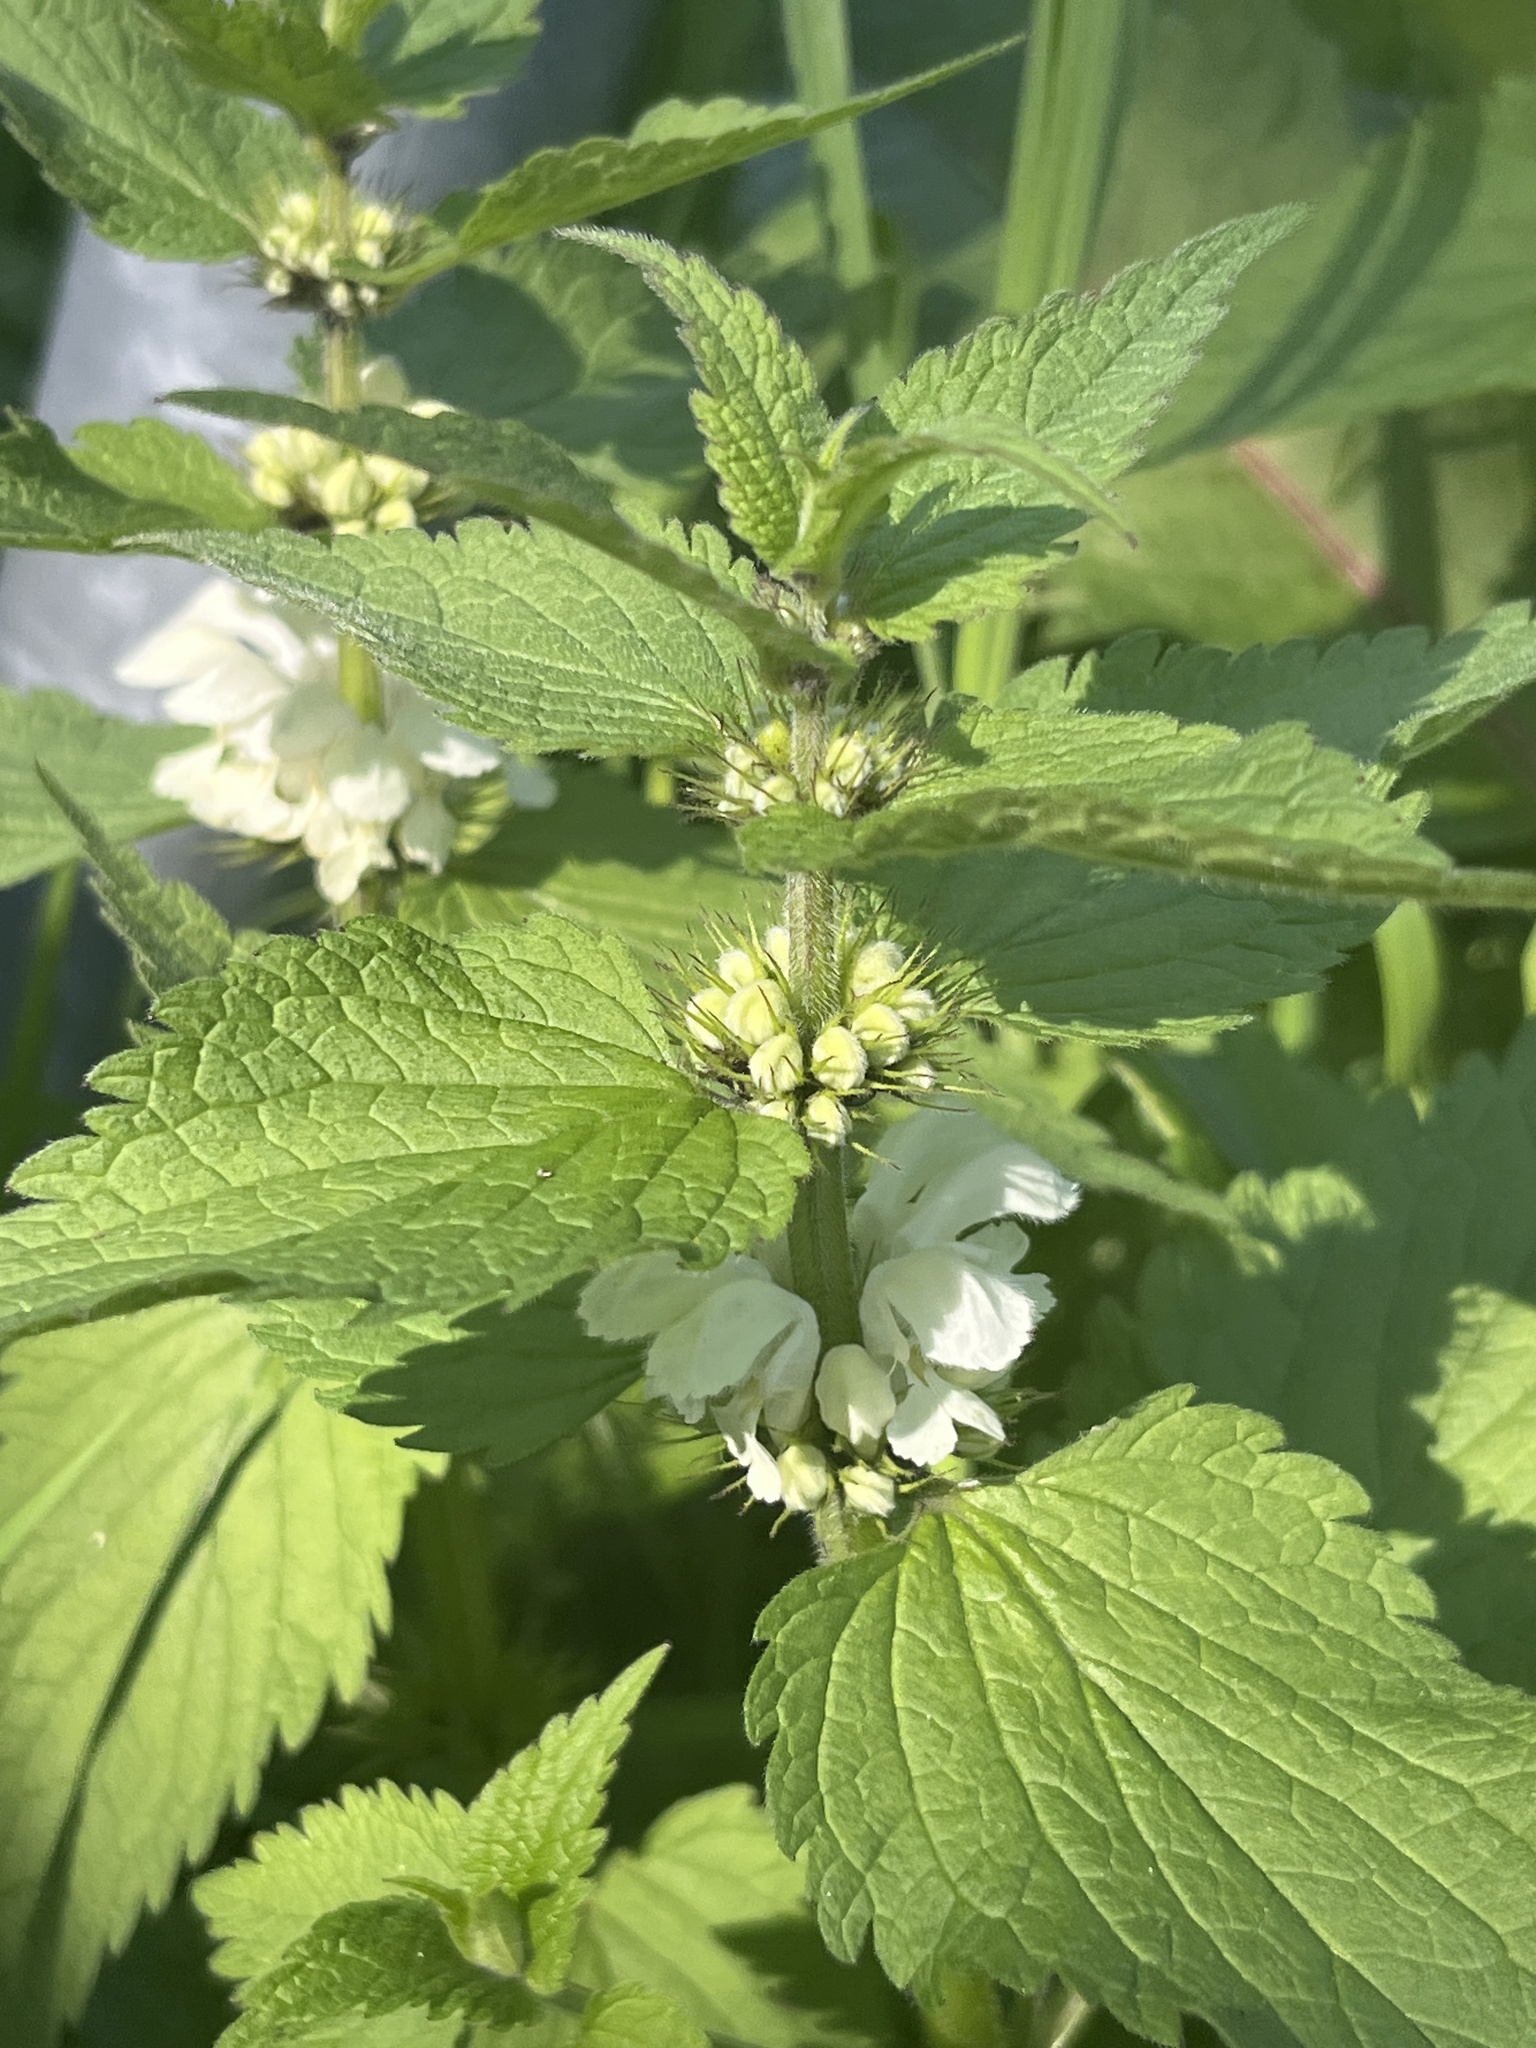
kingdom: Plantae
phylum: Tracheophyta
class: Magnoliopsida
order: Lamiales
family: Lamiaceae
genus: Lamium
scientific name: Lamium album
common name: White dead-nettle
